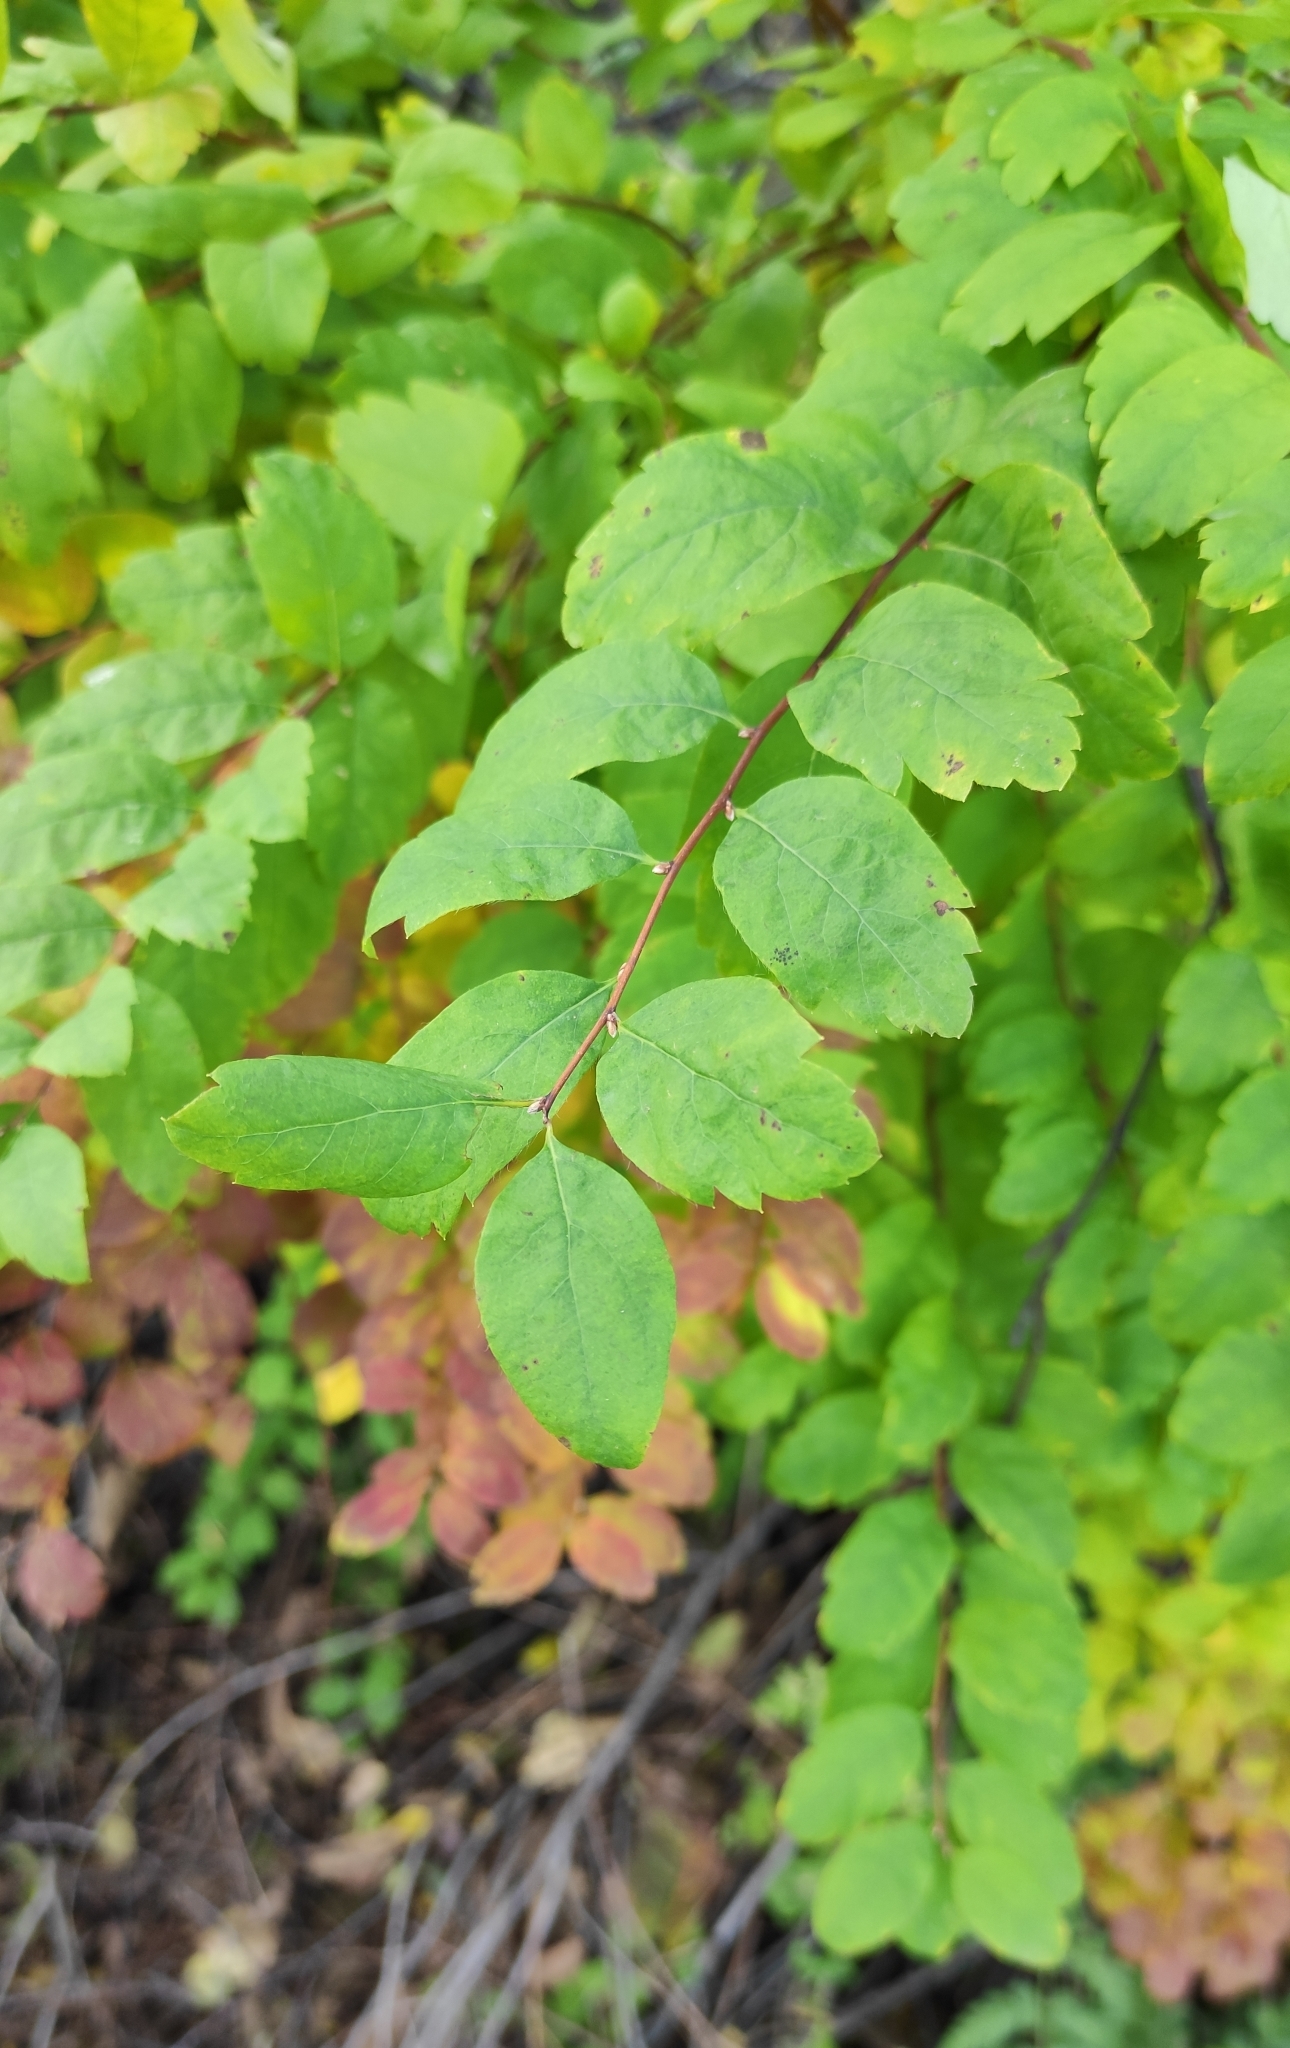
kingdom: Plantae
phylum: Tracheophyta
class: Magnoliopsida
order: Rosales
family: Rosaceae
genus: Spiraea
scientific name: Spiraea media
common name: Russian spiraea
